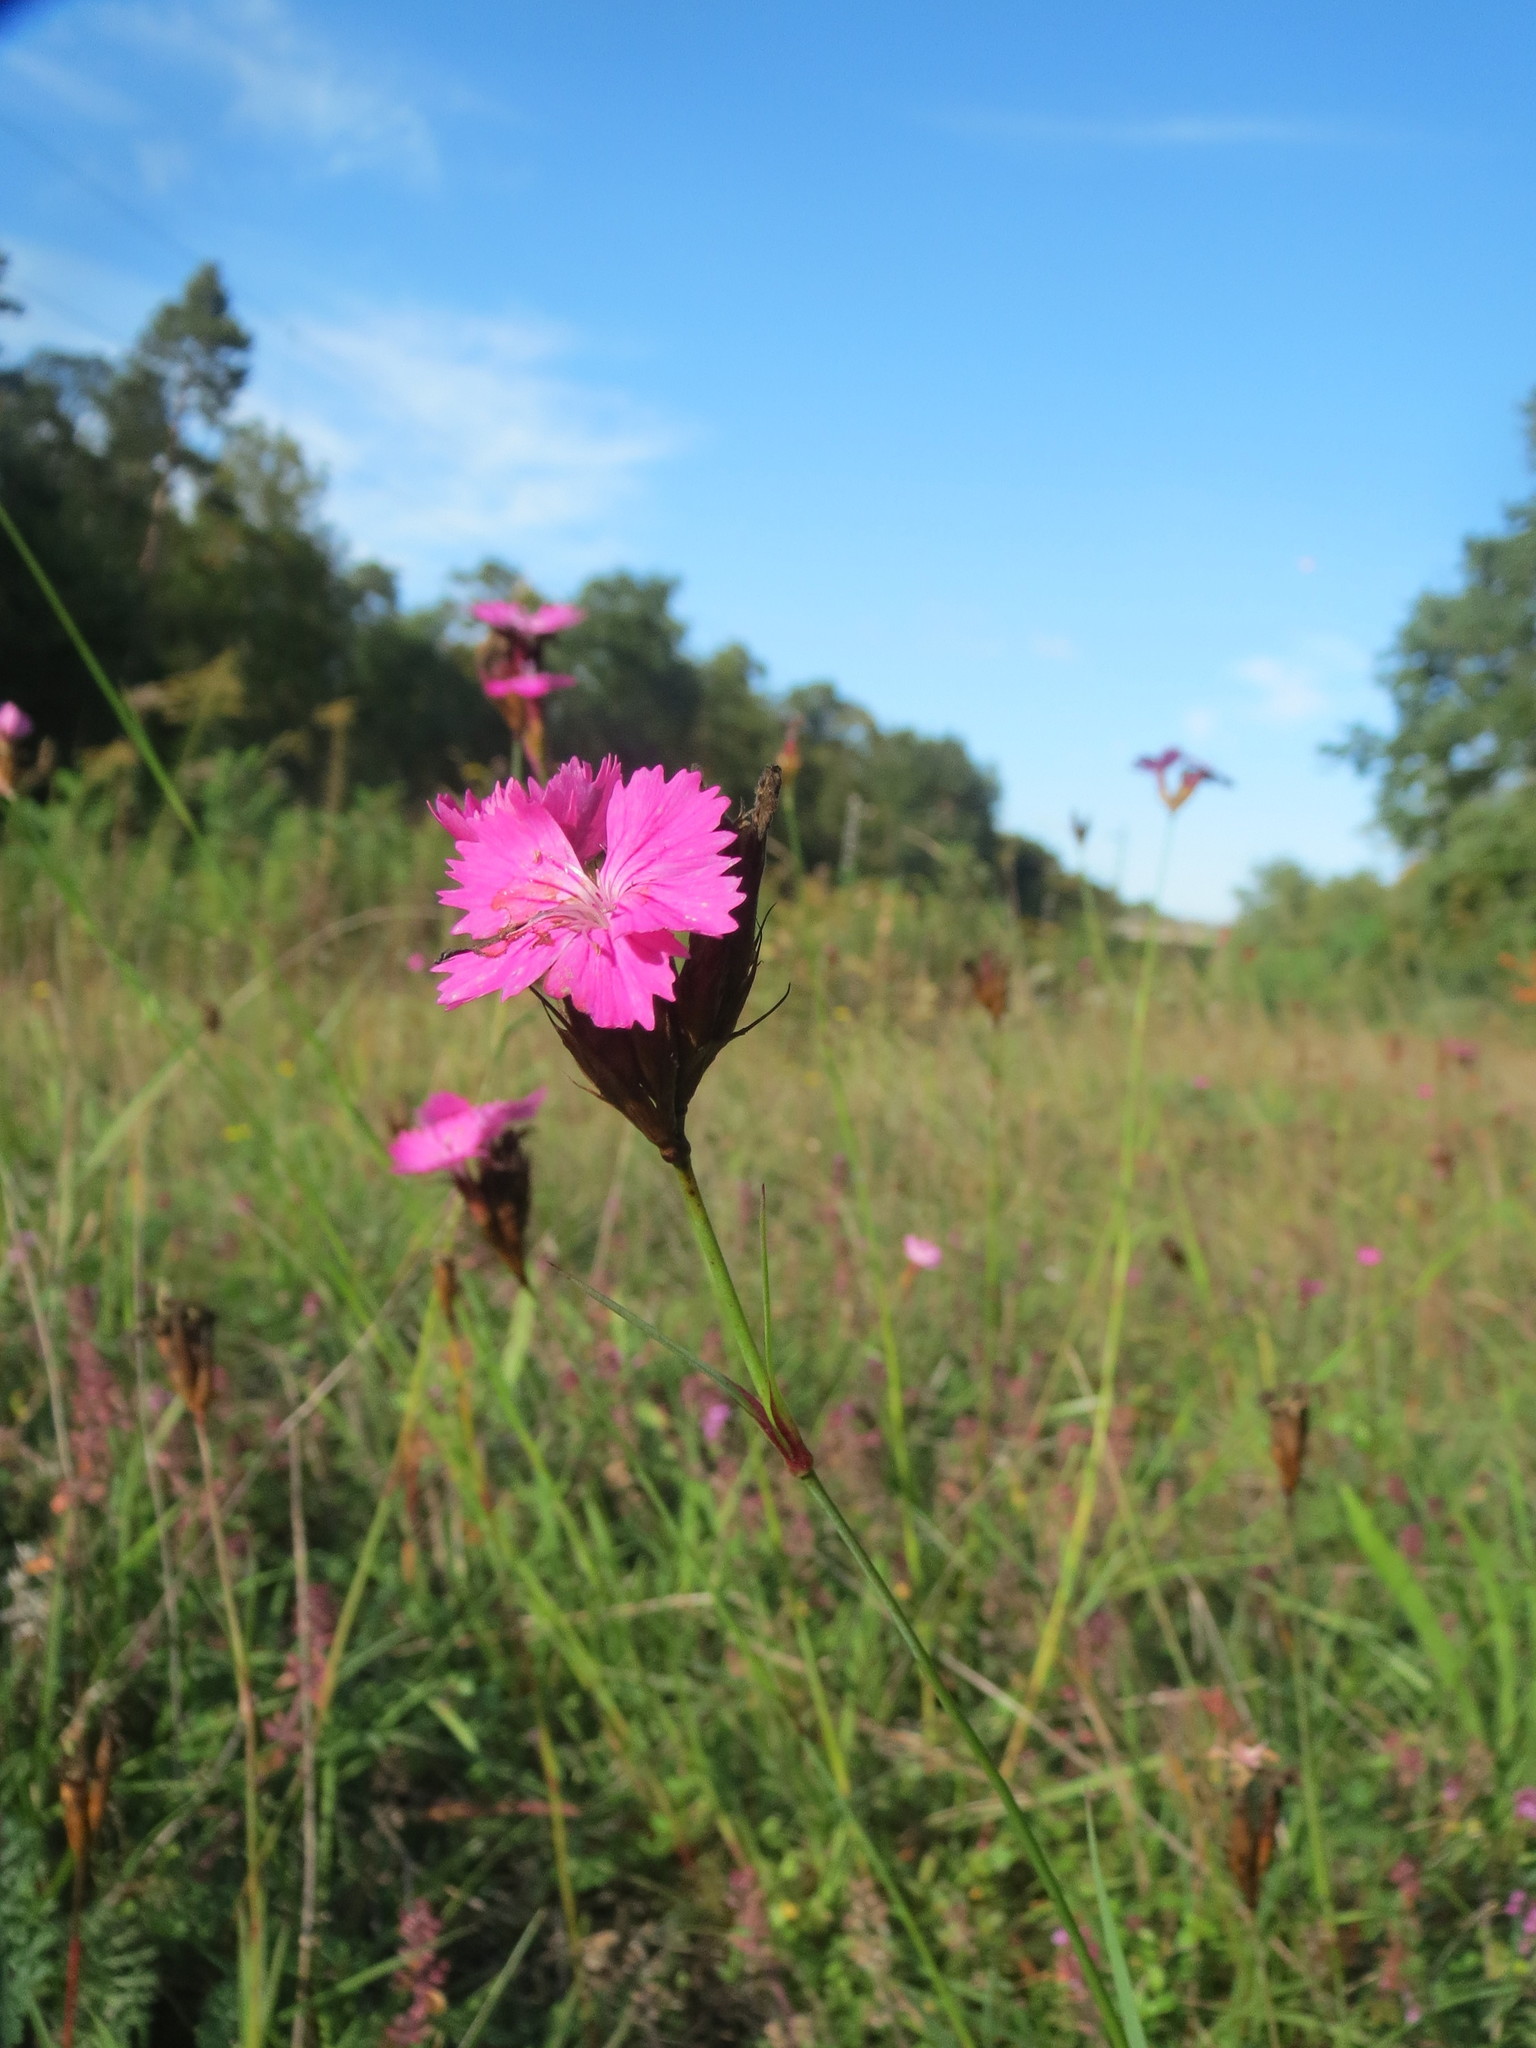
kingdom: Plantae
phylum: Tracheophyta
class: Magnoliopsida
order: Caryophyllales
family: Caryophyllaceae
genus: Dianthus
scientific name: Dianthus carthusianorum
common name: Carthusian pink
